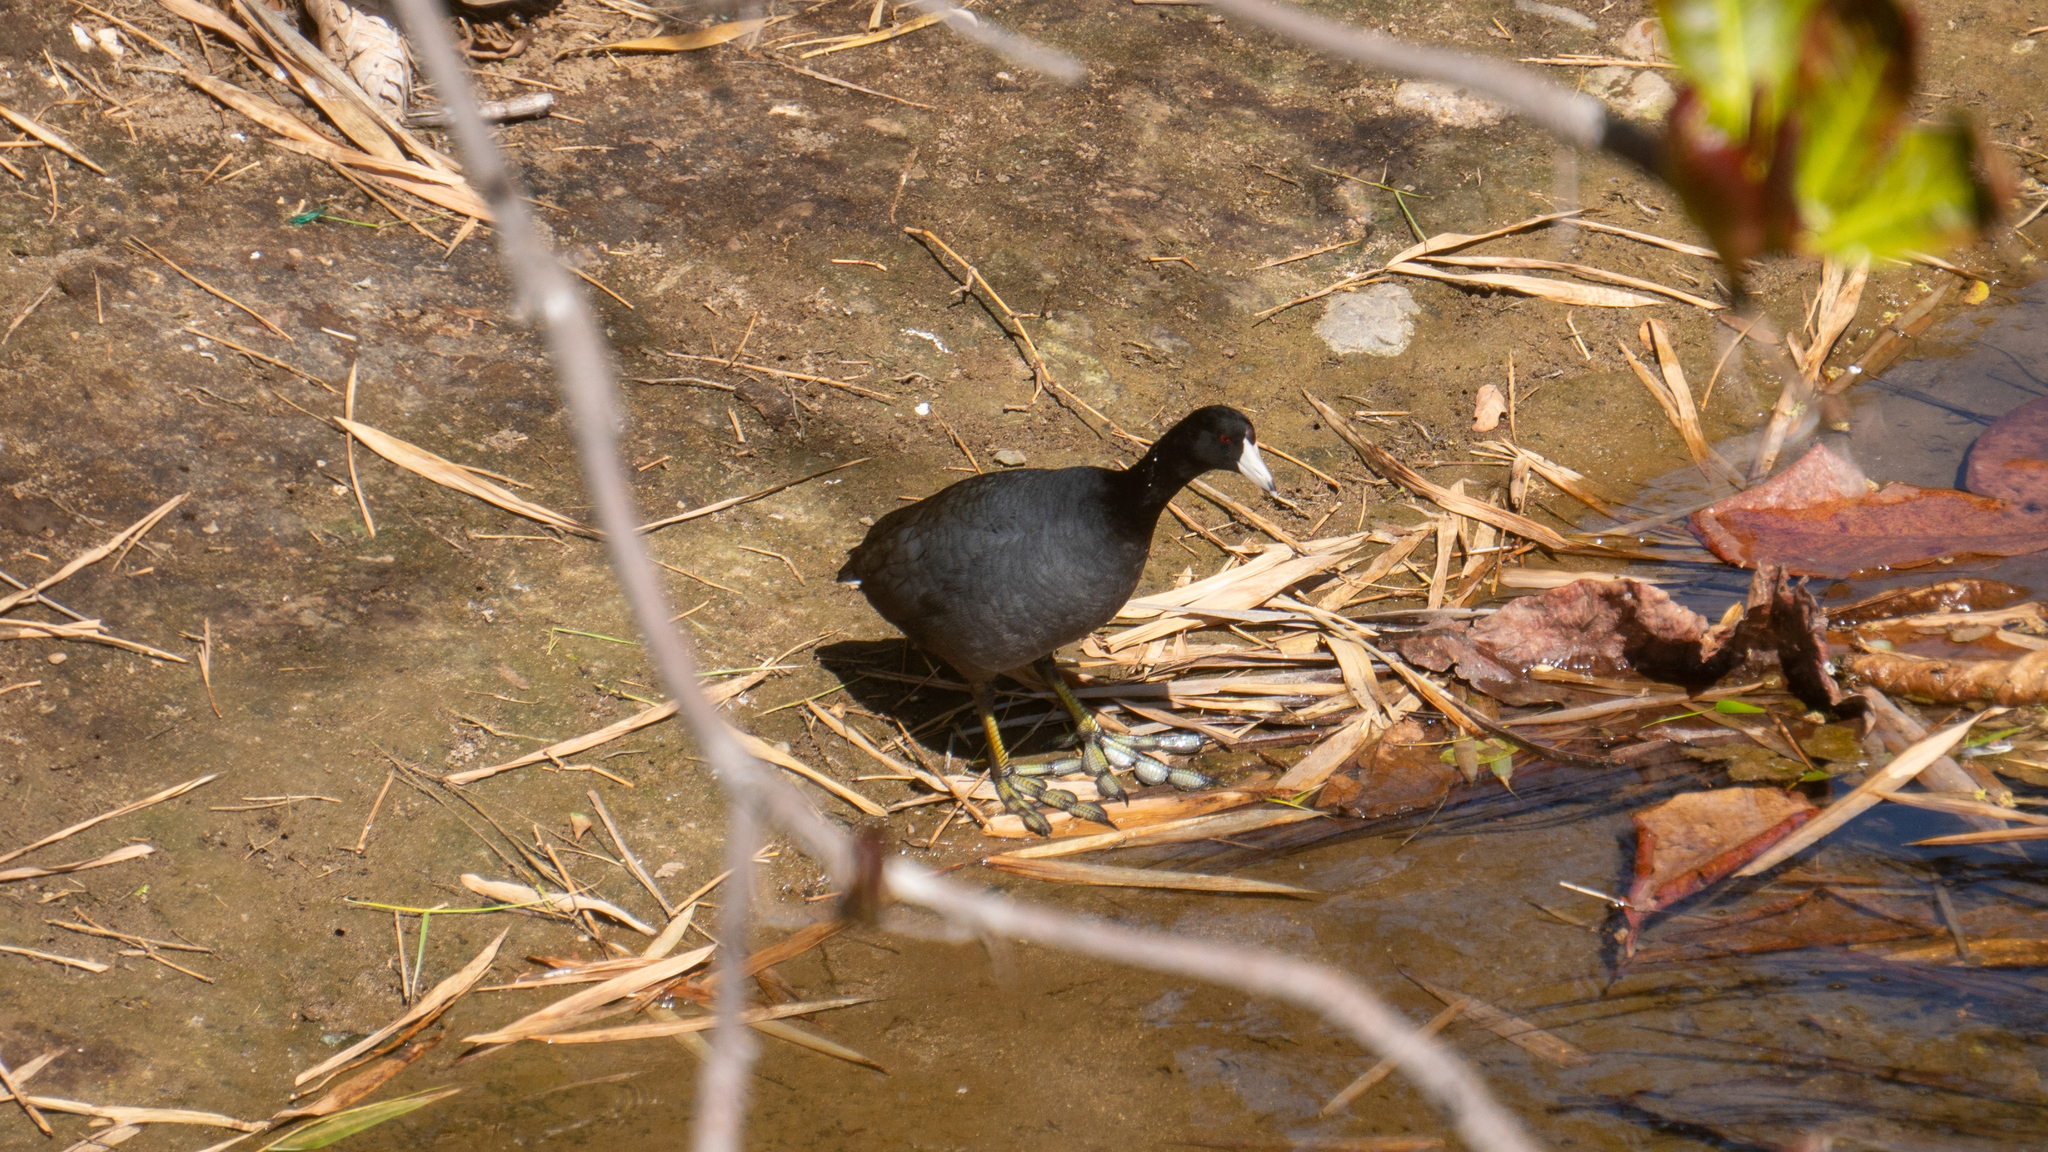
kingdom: Animalia
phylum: Chordata
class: Aves
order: Gruiformes
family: Rallidae
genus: Fulica
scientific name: Fulica americana
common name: American coot
